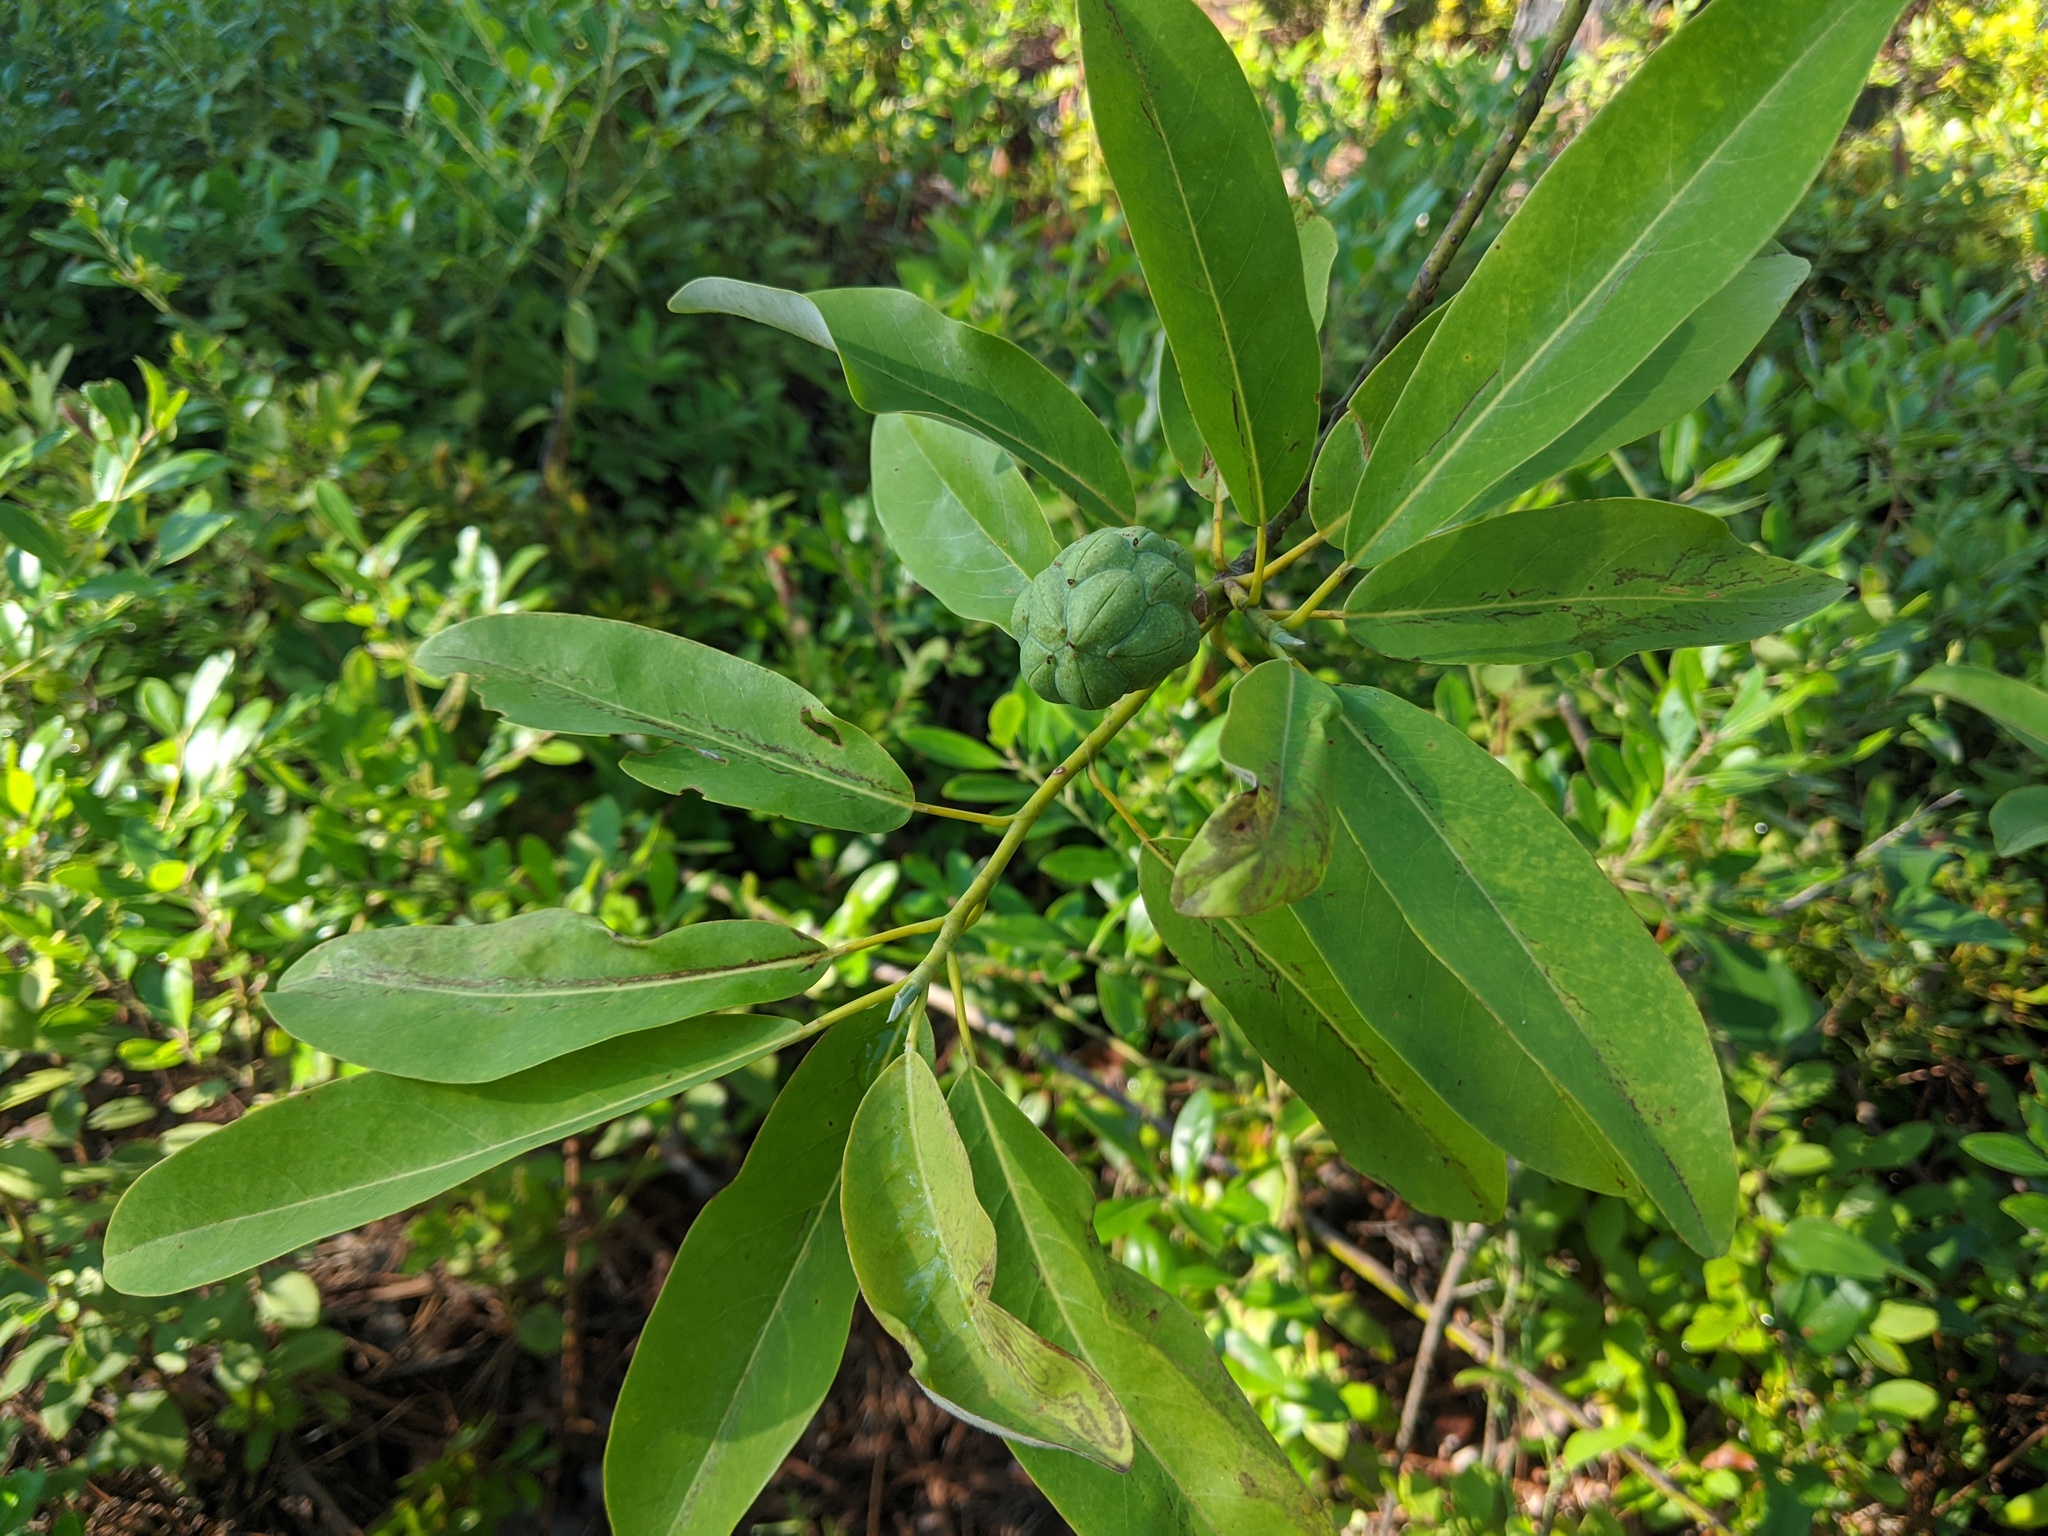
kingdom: Plantae
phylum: Tracheophyta
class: Magnoliopsida
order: Magnoliales
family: Magnoliaceae
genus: Magnolia
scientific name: Magnolia virginiana
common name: Swamp bay
